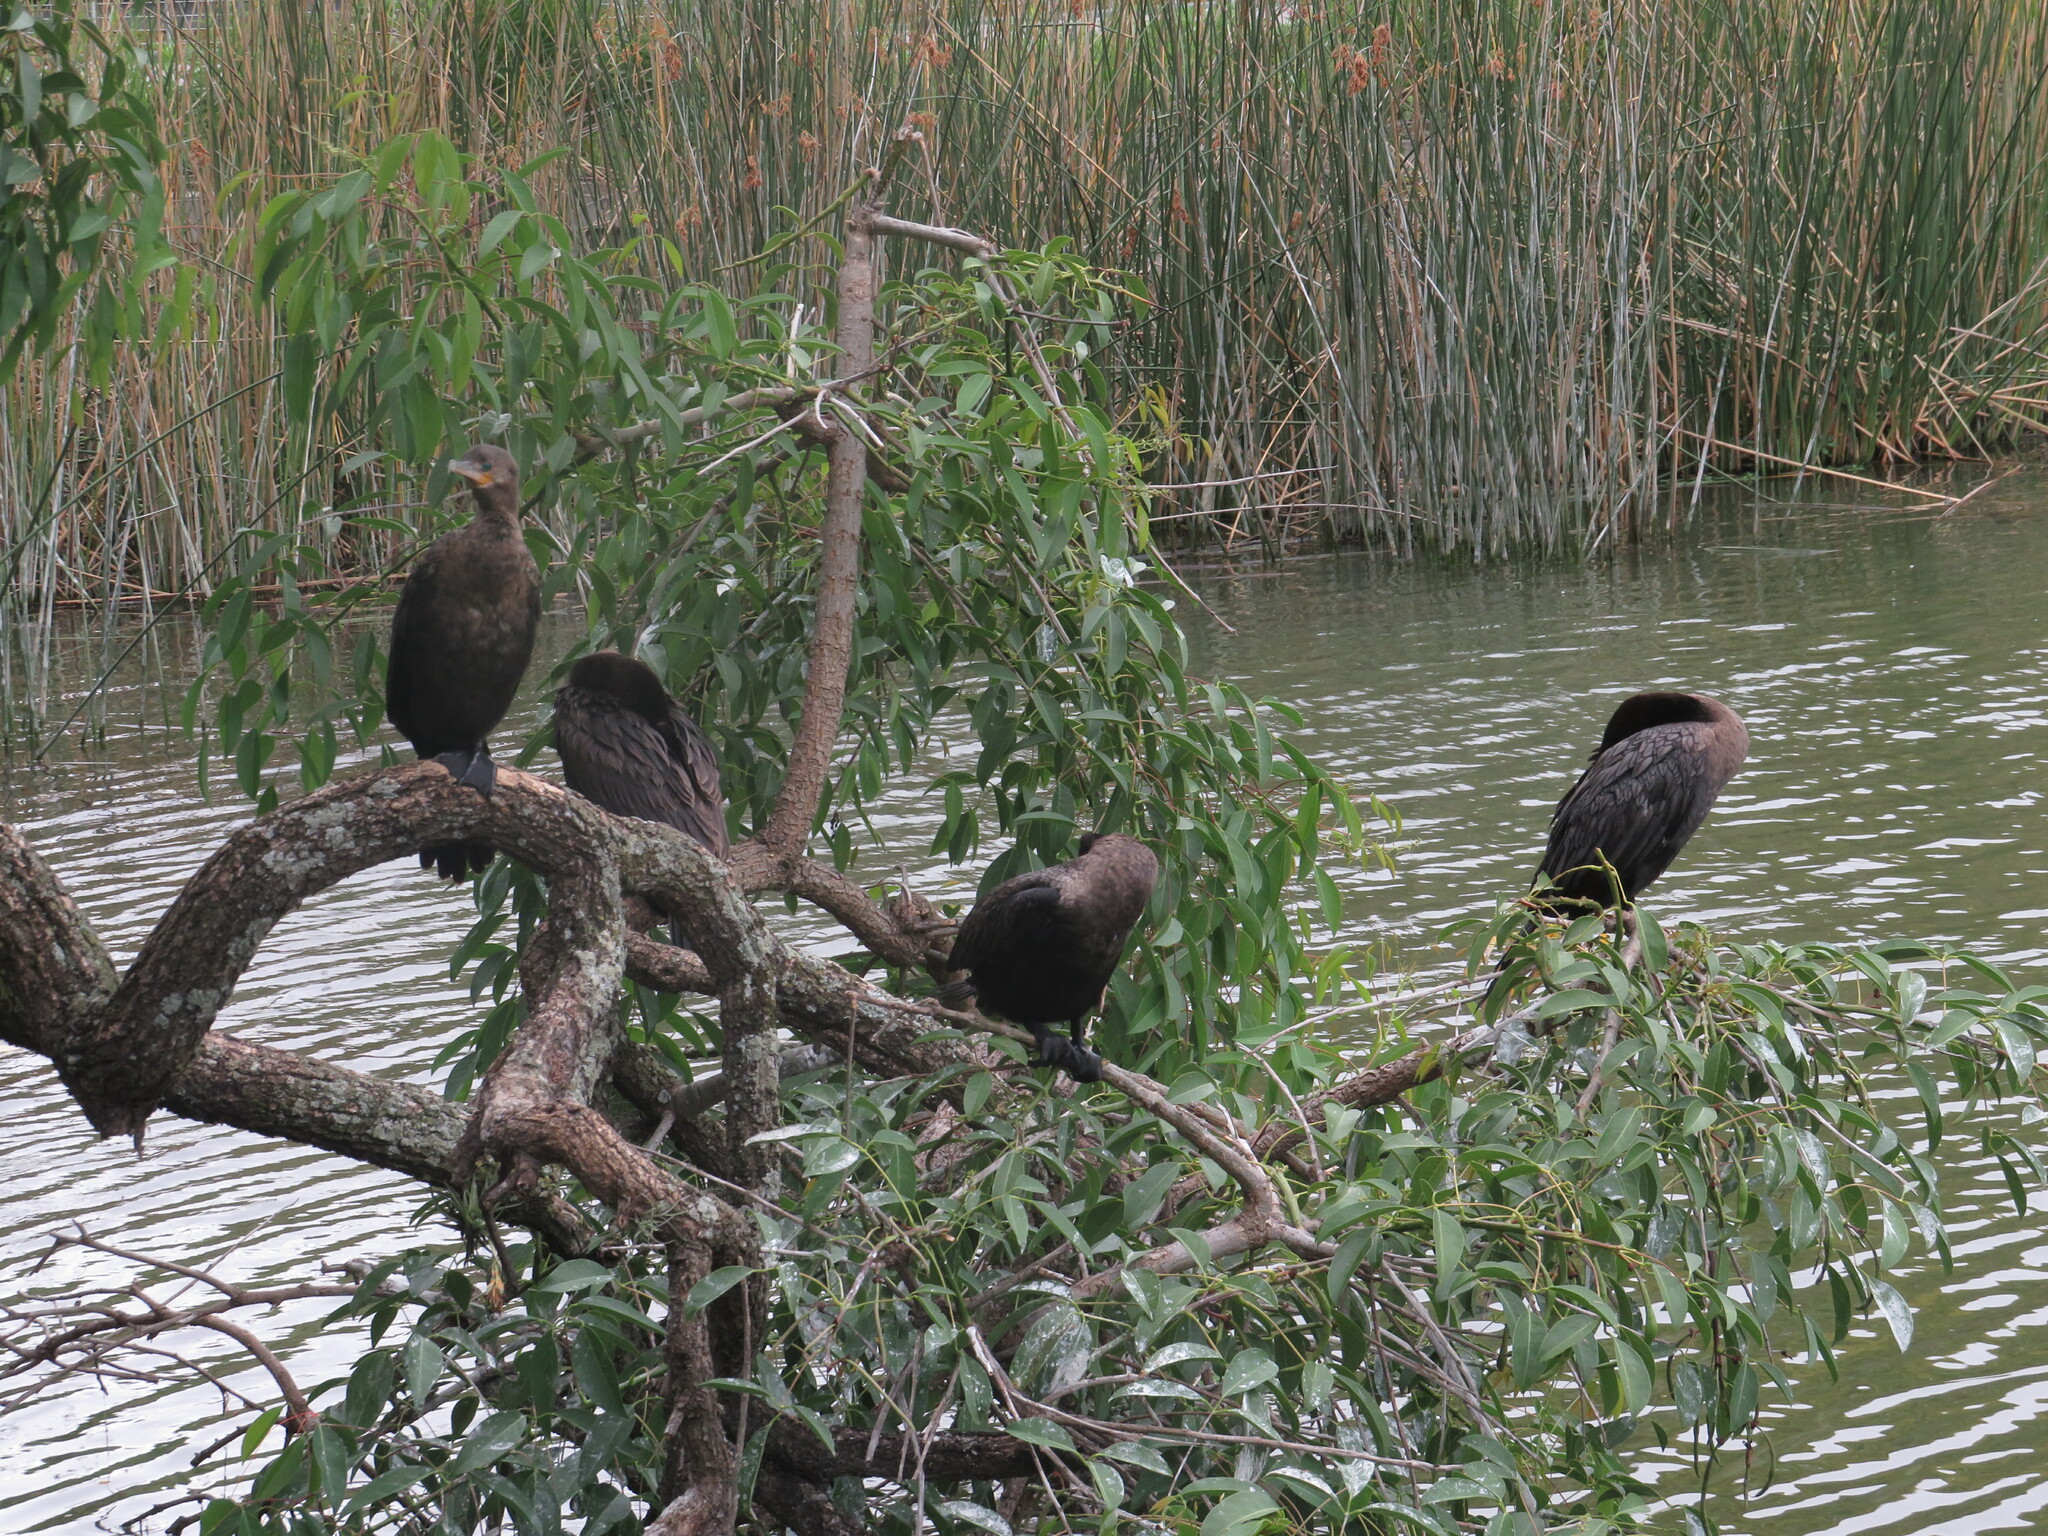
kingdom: Animalia
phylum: Chordata
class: Aves
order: Suliformes
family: Phalacrocoracidae
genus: Phalacrocorax
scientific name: Phalacrocorax brasilianus
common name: Neotropic cormorant
